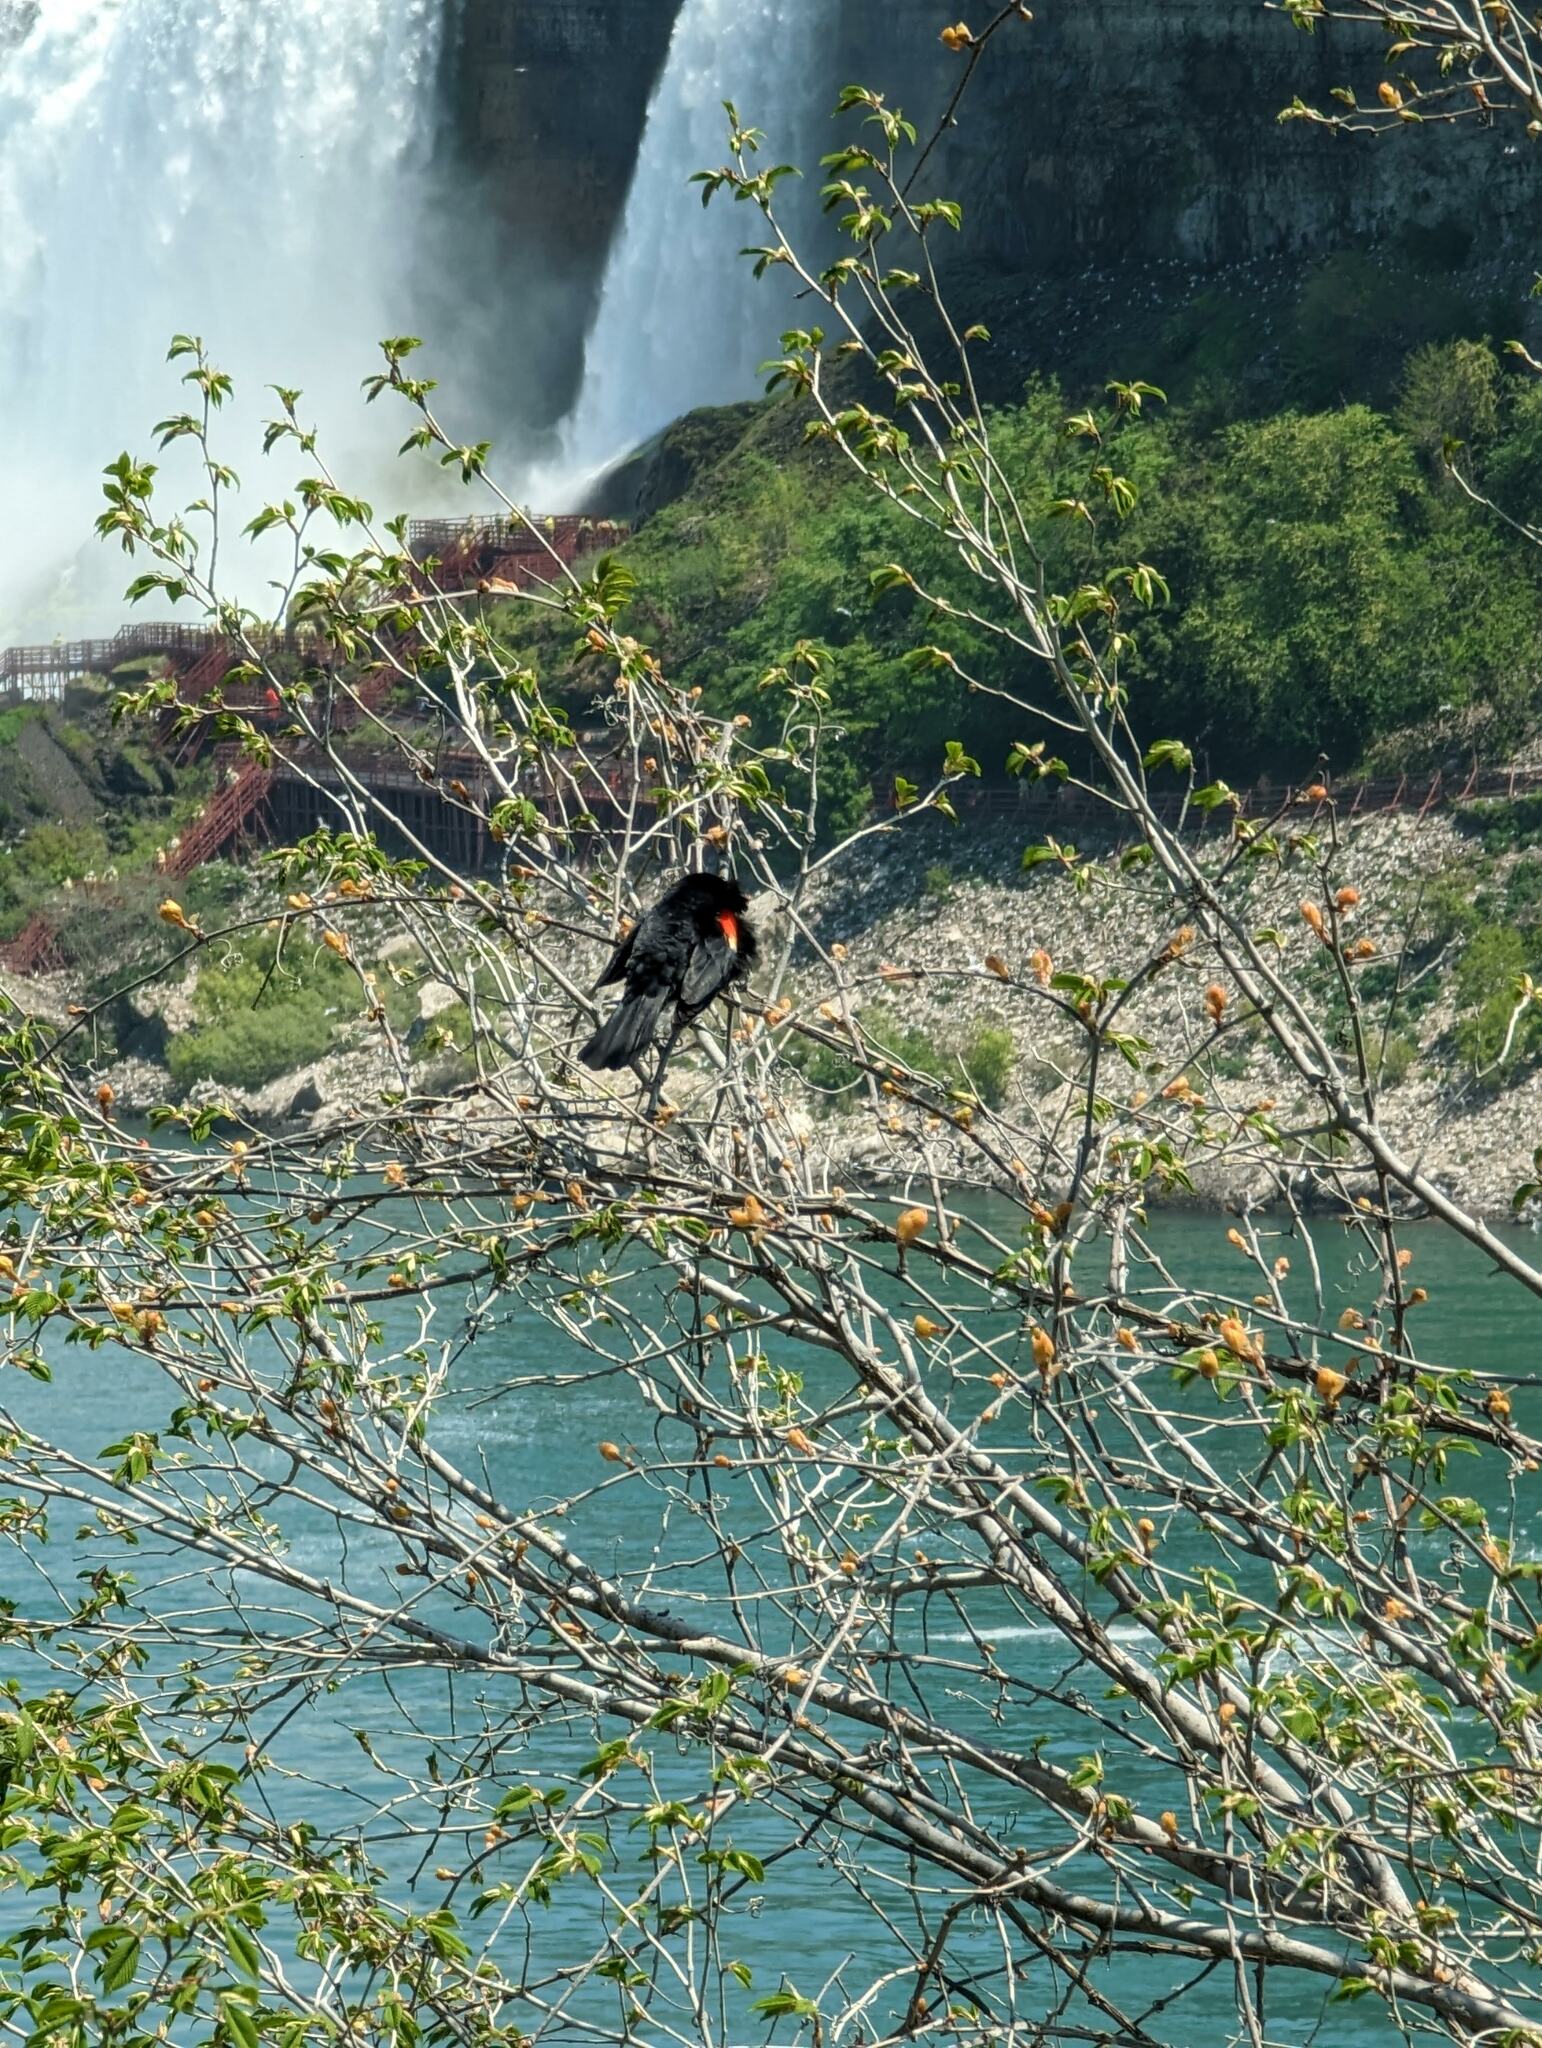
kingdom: Animalia
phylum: Chordata
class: Aves
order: Passeriformes
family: Icteridae
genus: Agelaius
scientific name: Agelaius phoeniceus
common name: Red-winged blackbird
